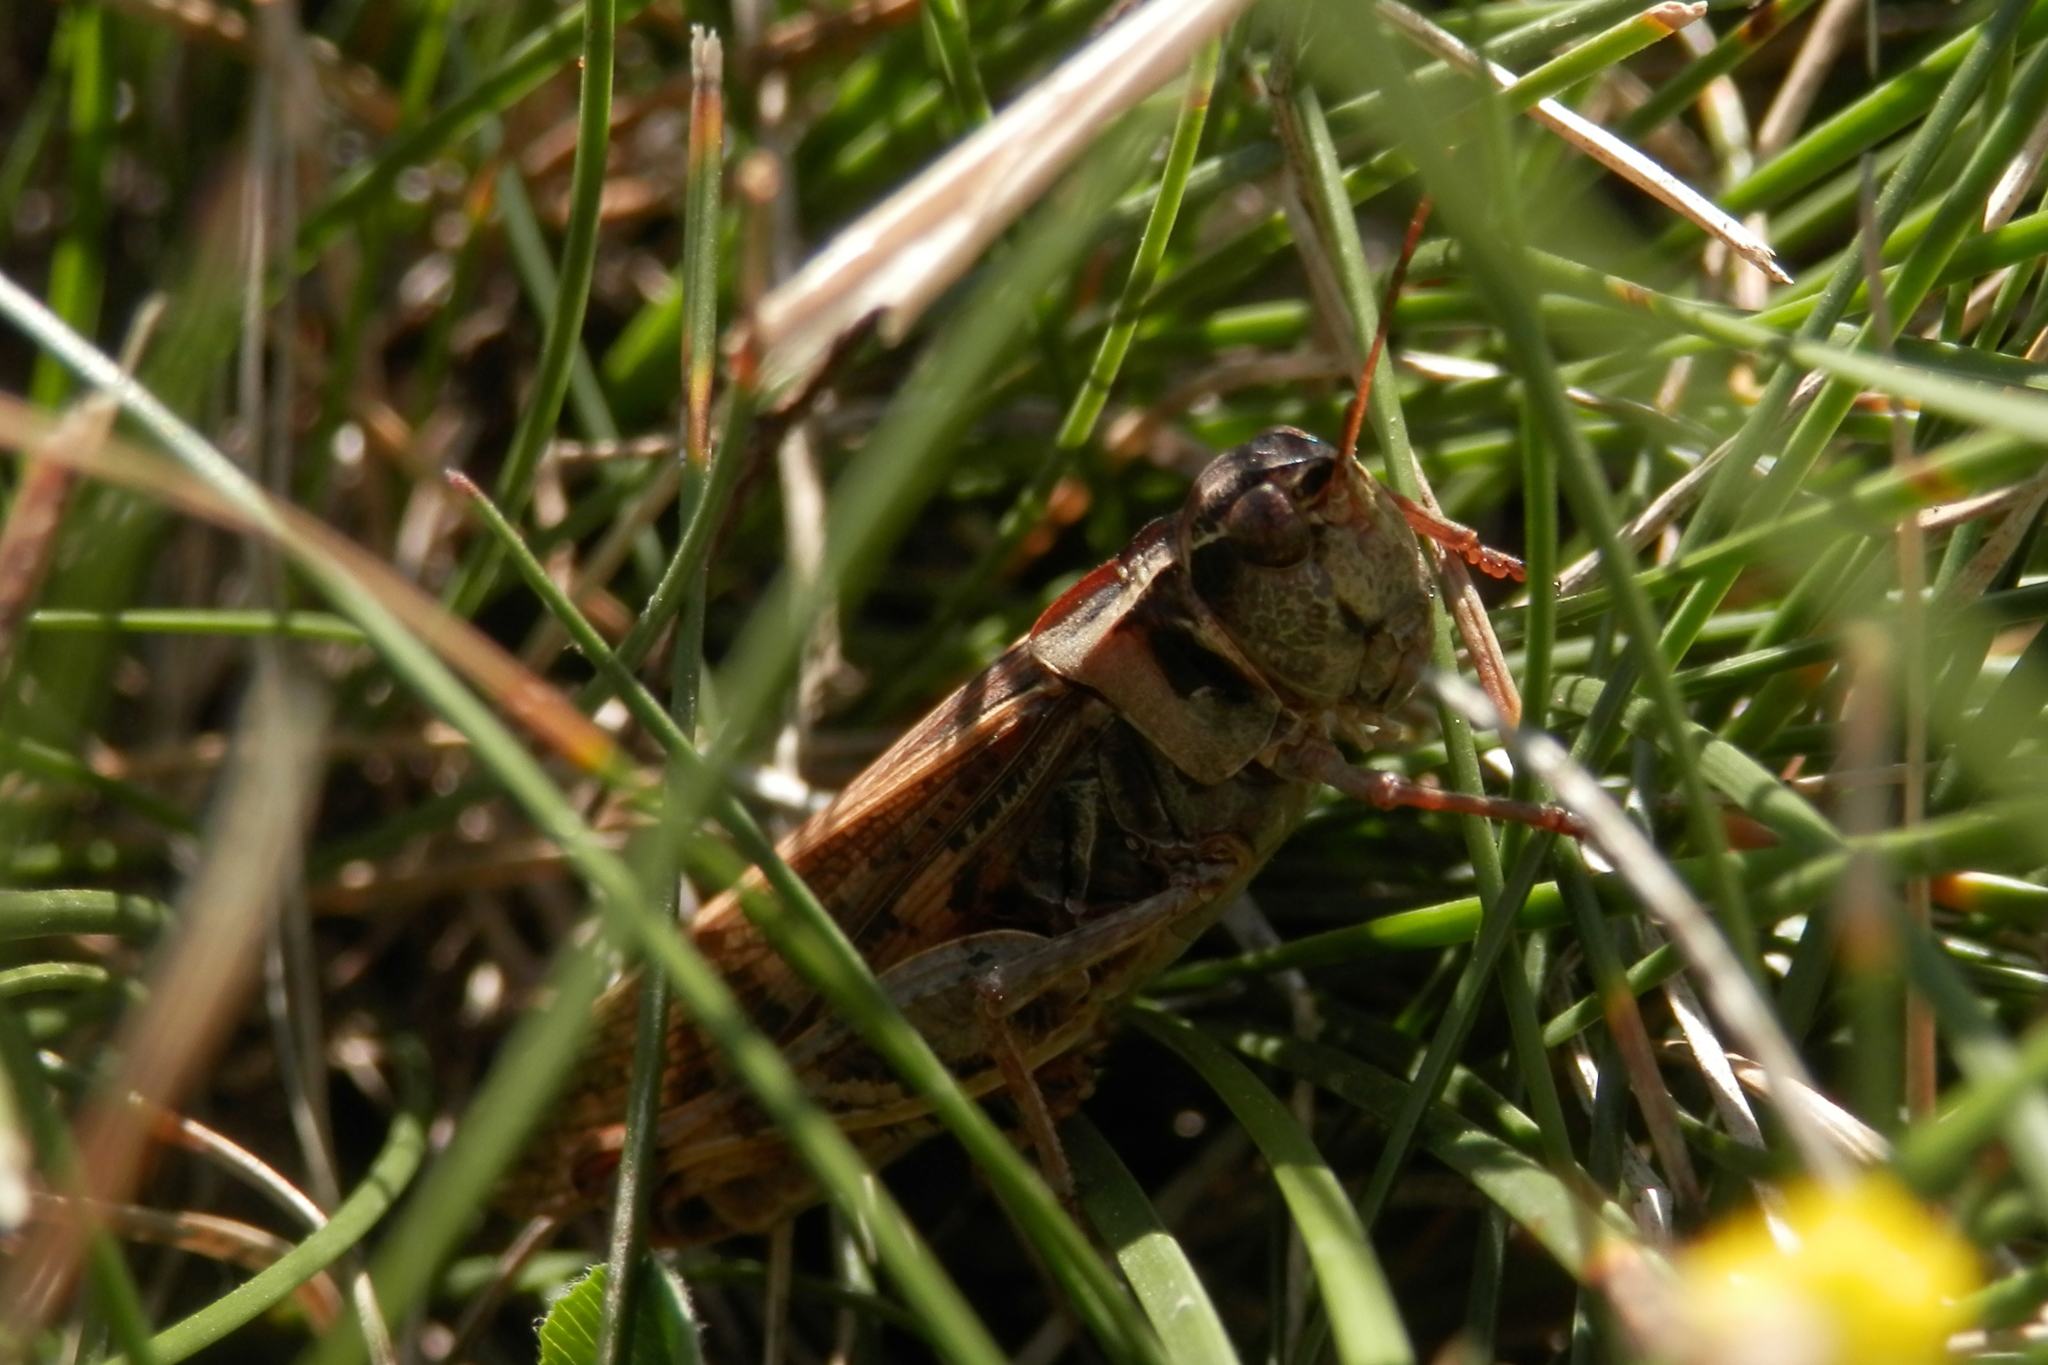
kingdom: Animalia
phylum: Arthropoda
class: Insecta
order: Orthoptera
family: Acrididae
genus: Camnula
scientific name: Camnula pellucida
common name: Clear-winged grasshopper
